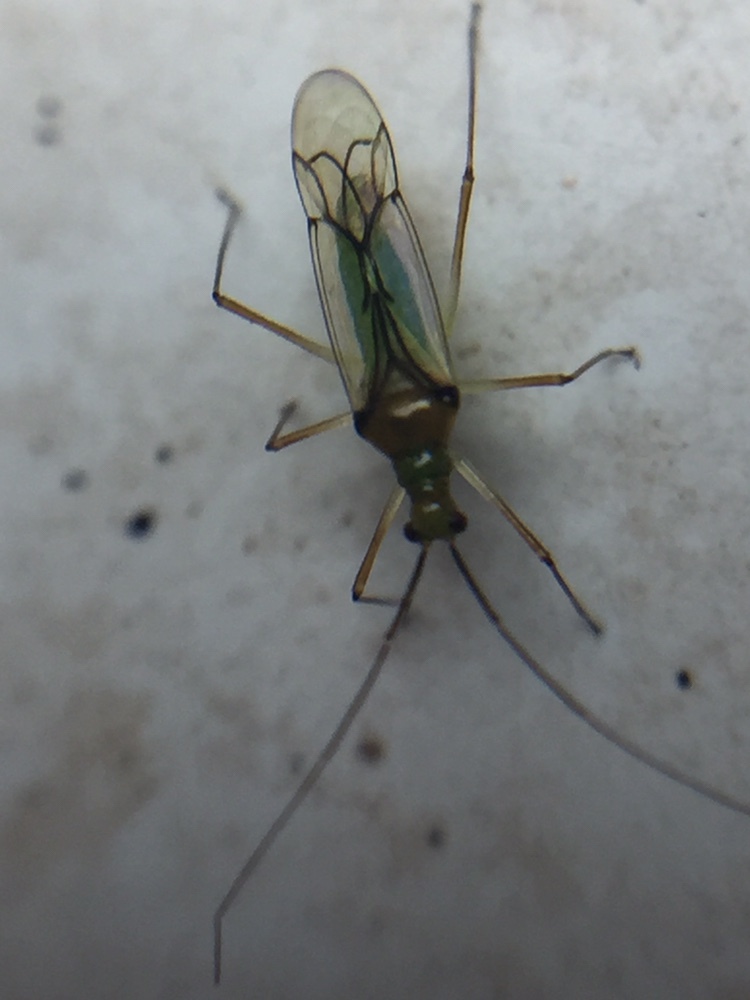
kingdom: Animalia
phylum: Arthropoda
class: Insecta
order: Hemiptera
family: Miridae
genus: Felisacus
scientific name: Felisacus elegantulus
